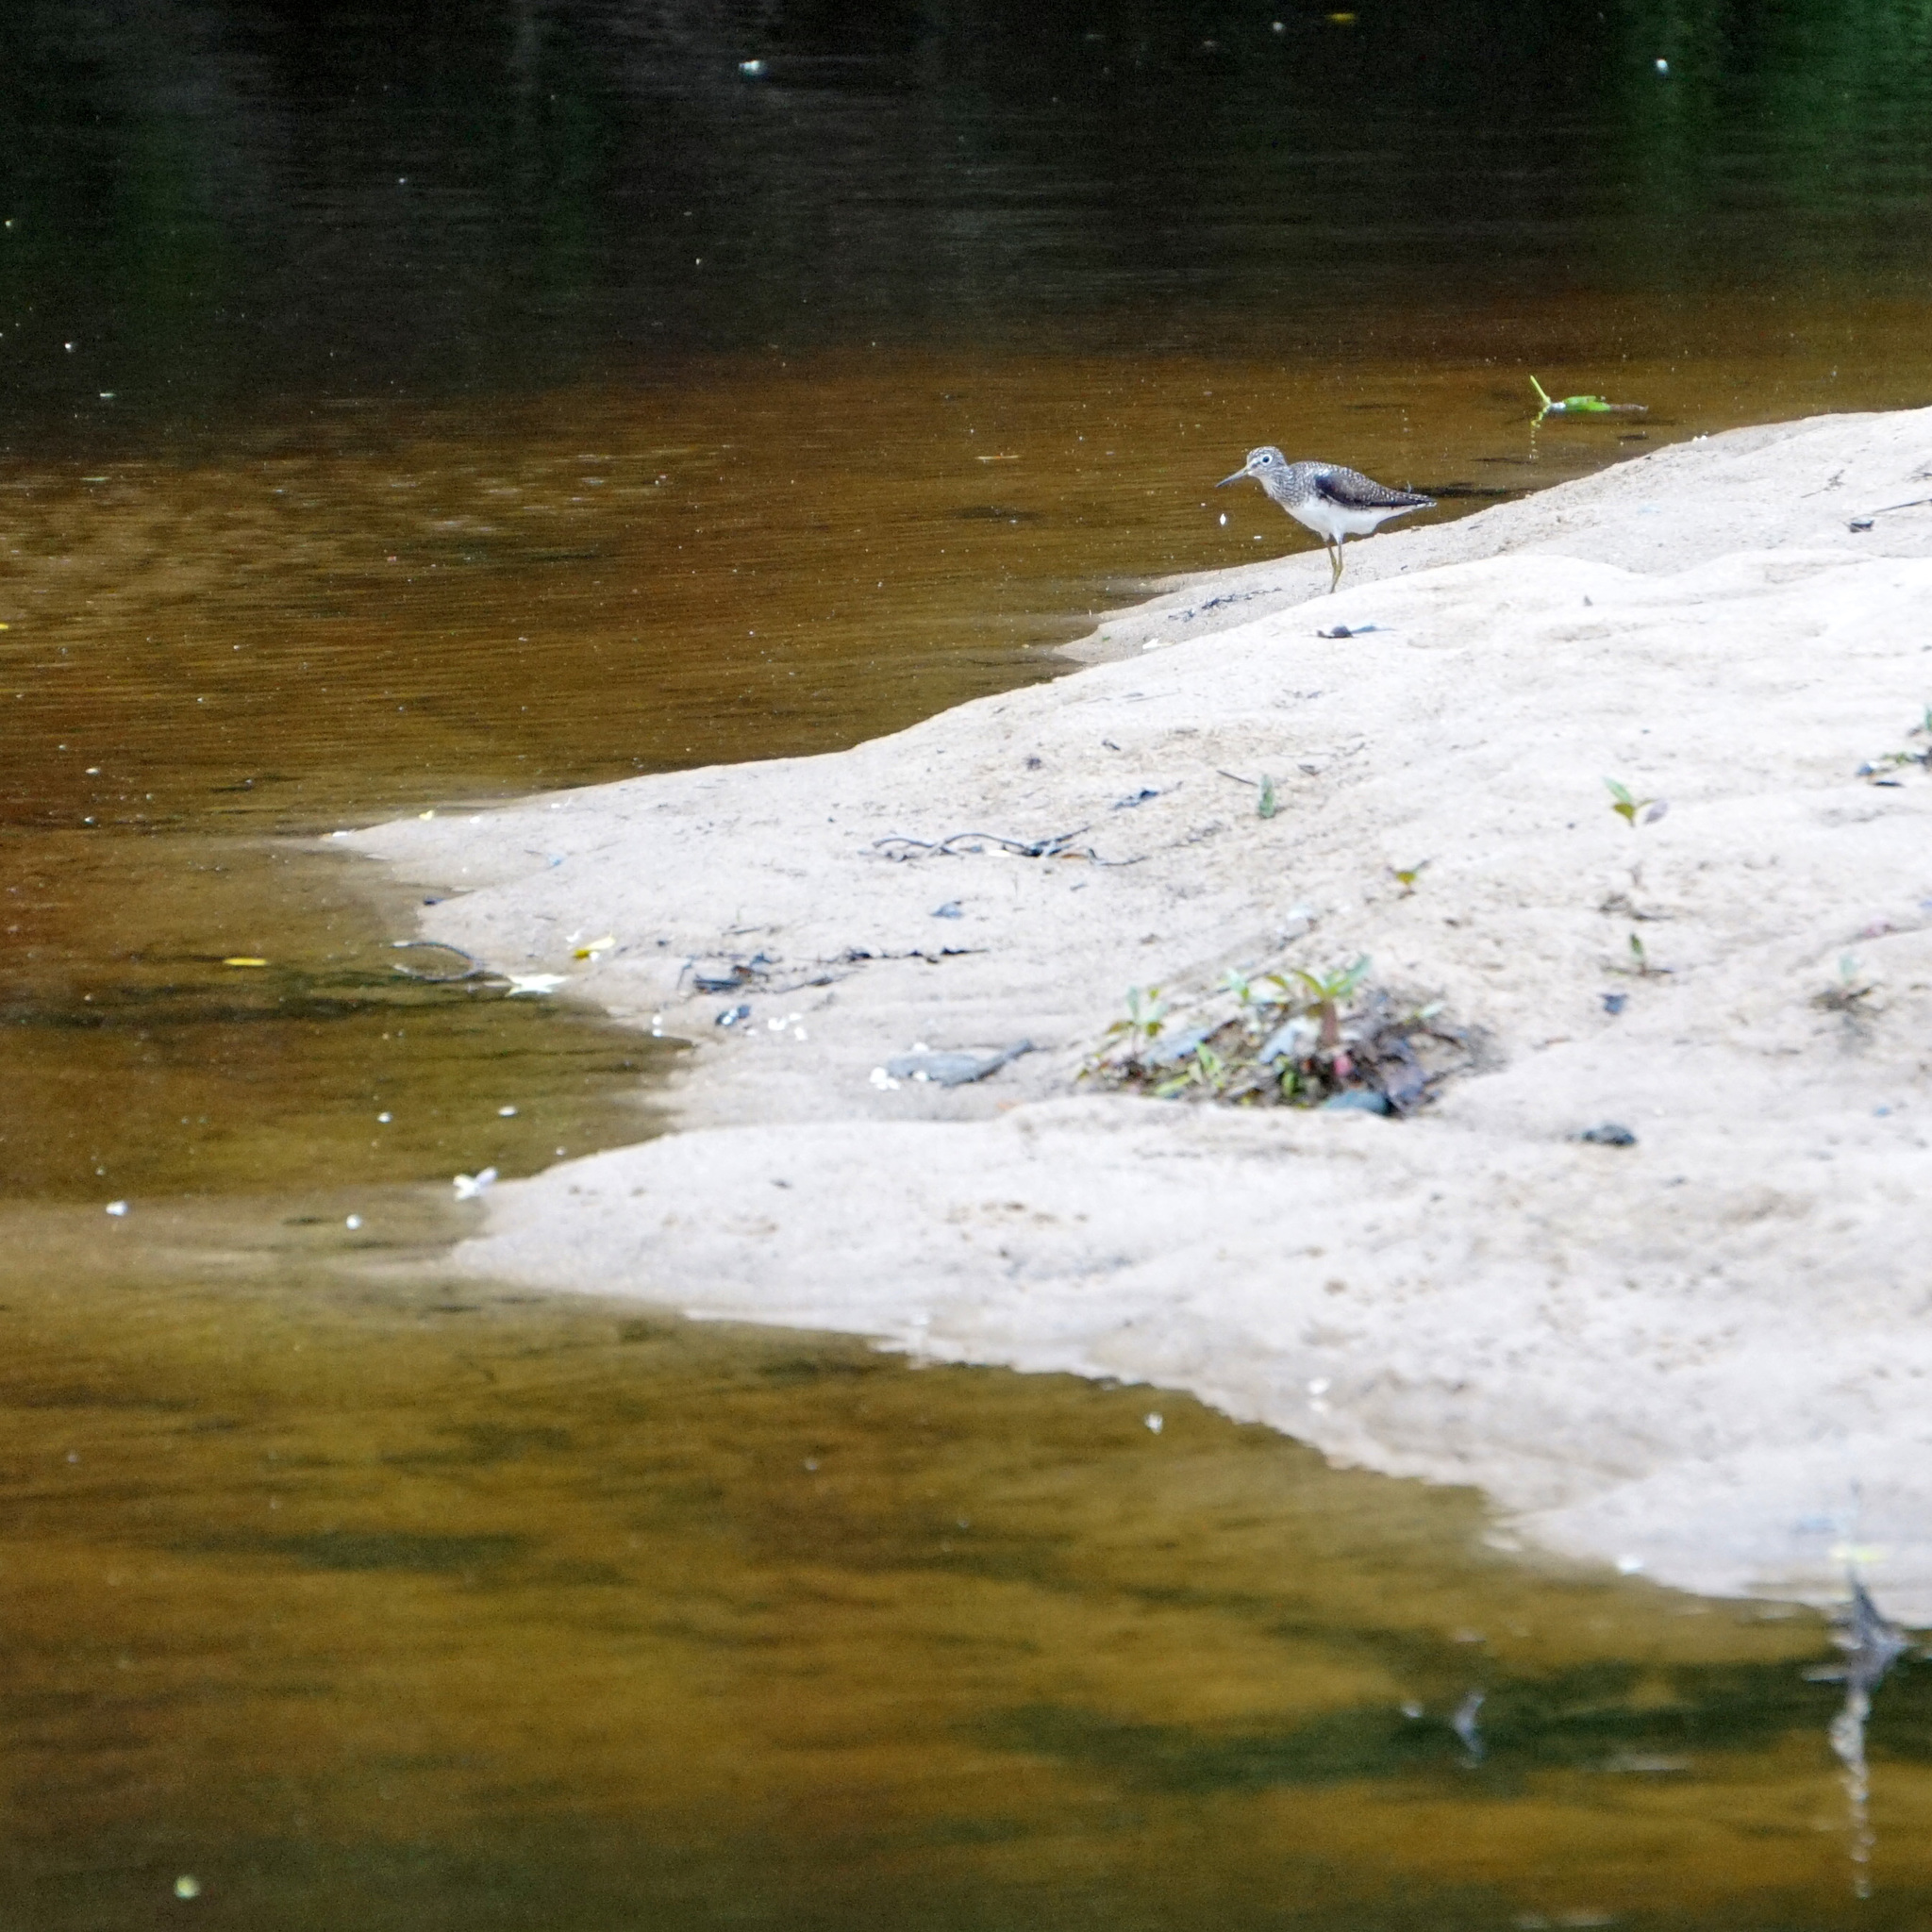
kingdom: Animalia
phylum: Chordata
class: Aves
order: Charadriiformes
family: Scolopacidae
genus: Tringa
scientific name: Tringa solitaria
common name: Solitary sandpiper
